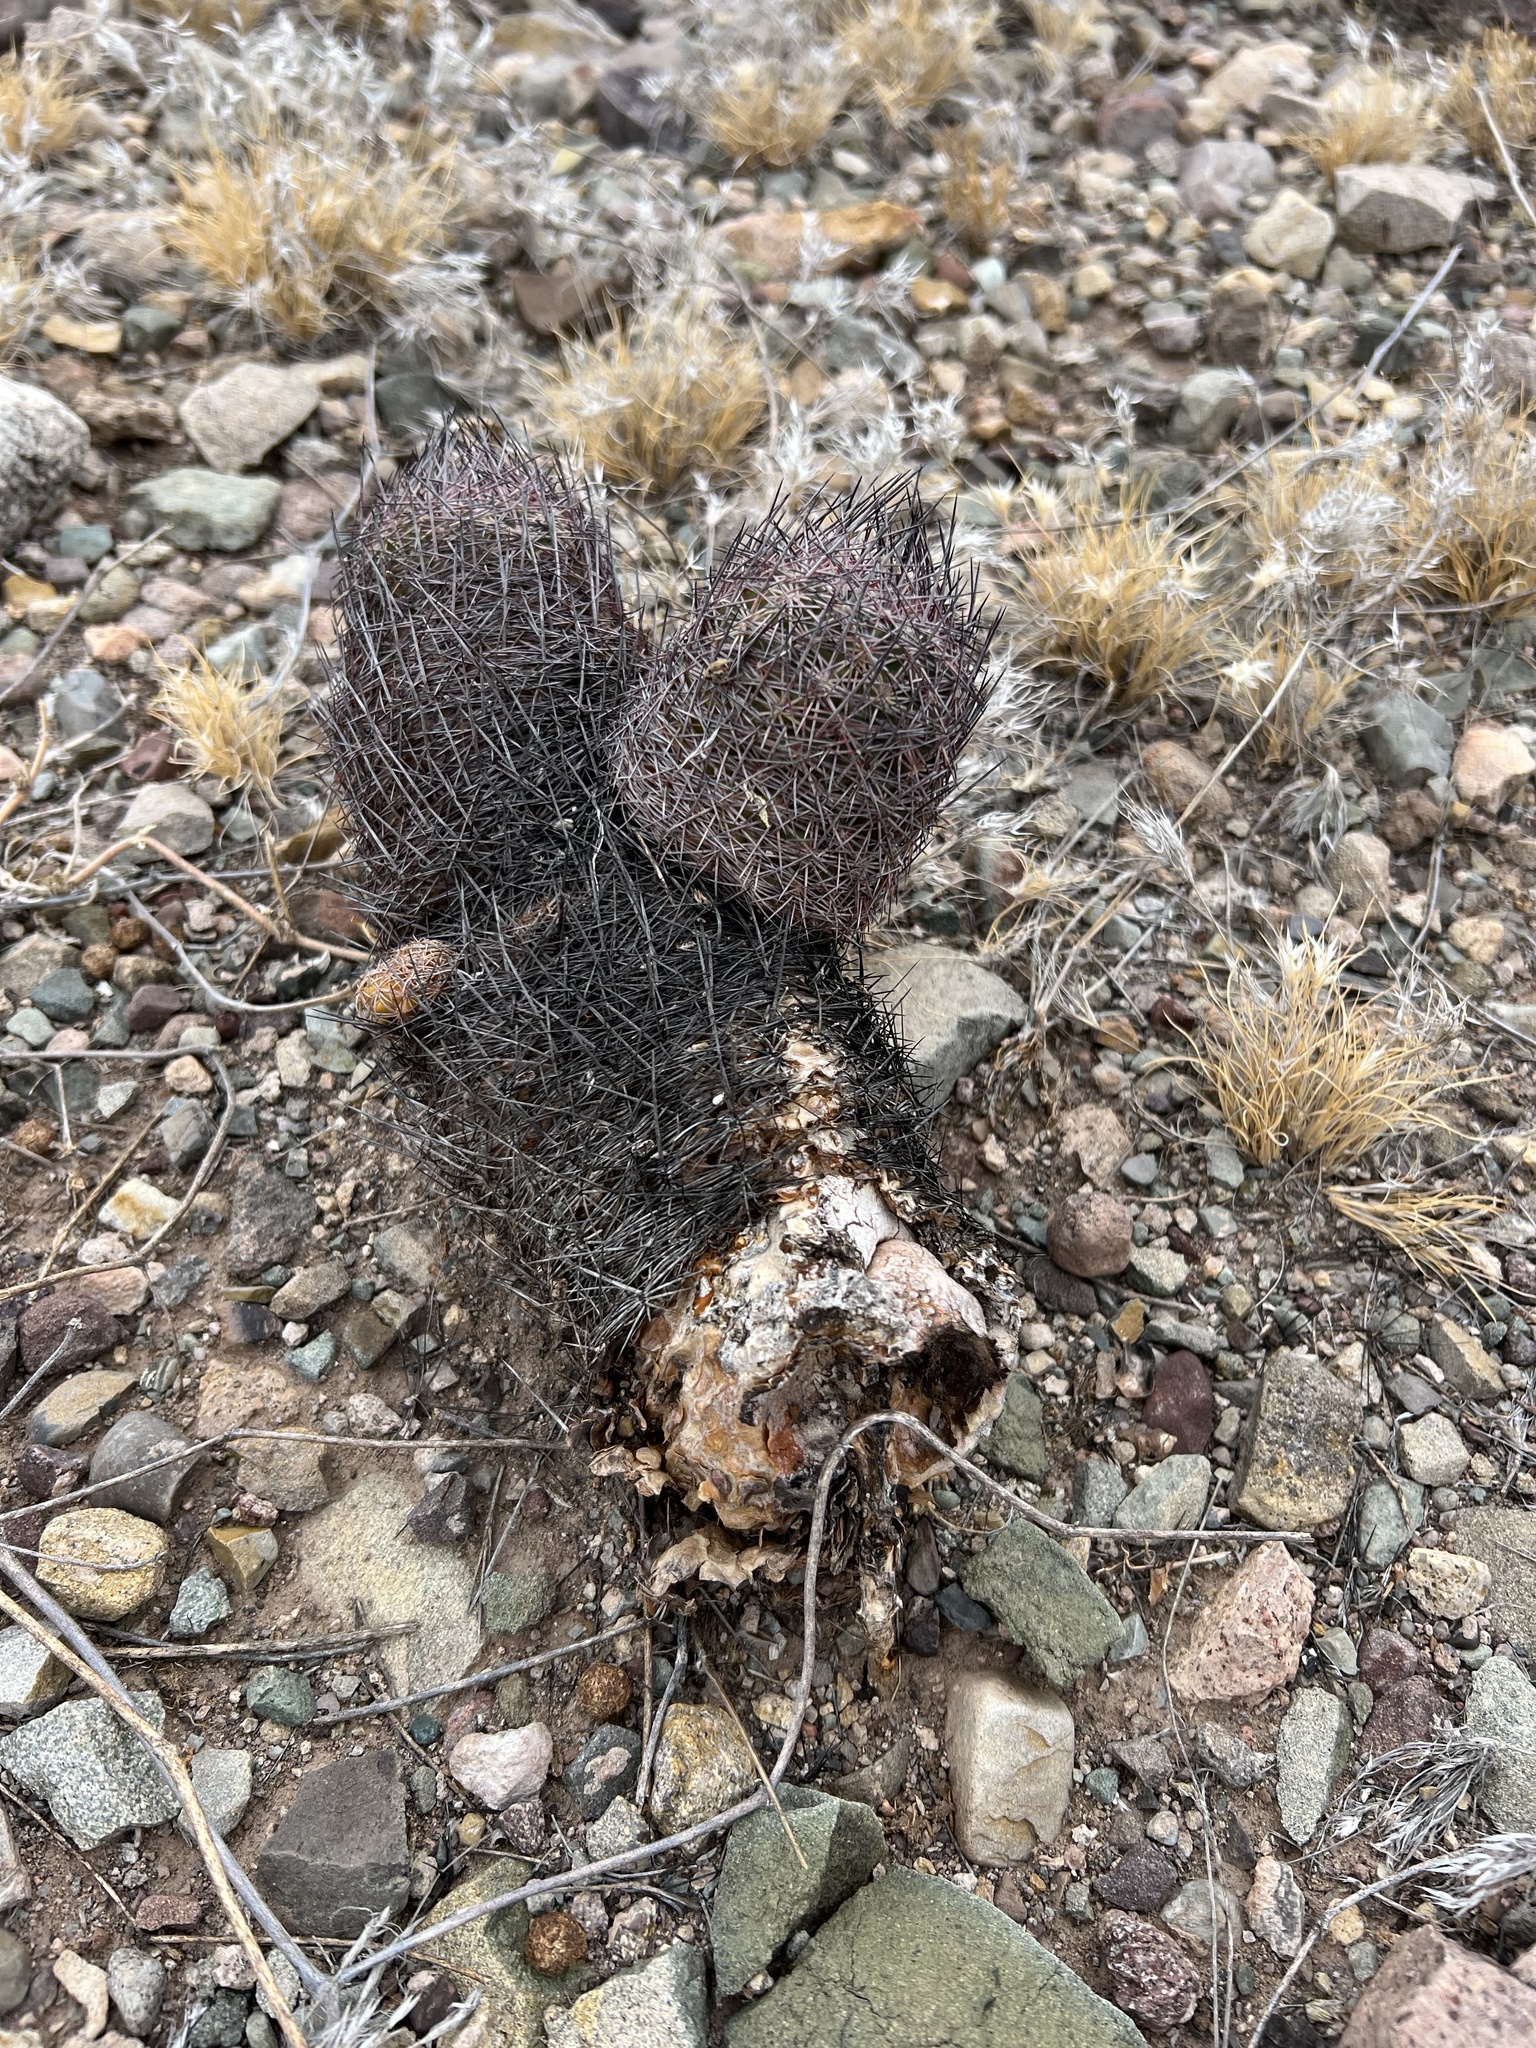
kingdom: Plantae
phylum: Tracheophyta
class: Magnoliopsida
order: Caryophyllales
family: Cactaceae
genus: Sclerocactus
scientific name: Sclerocactus johnsonii
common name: Eight-spine fishhook cactus
